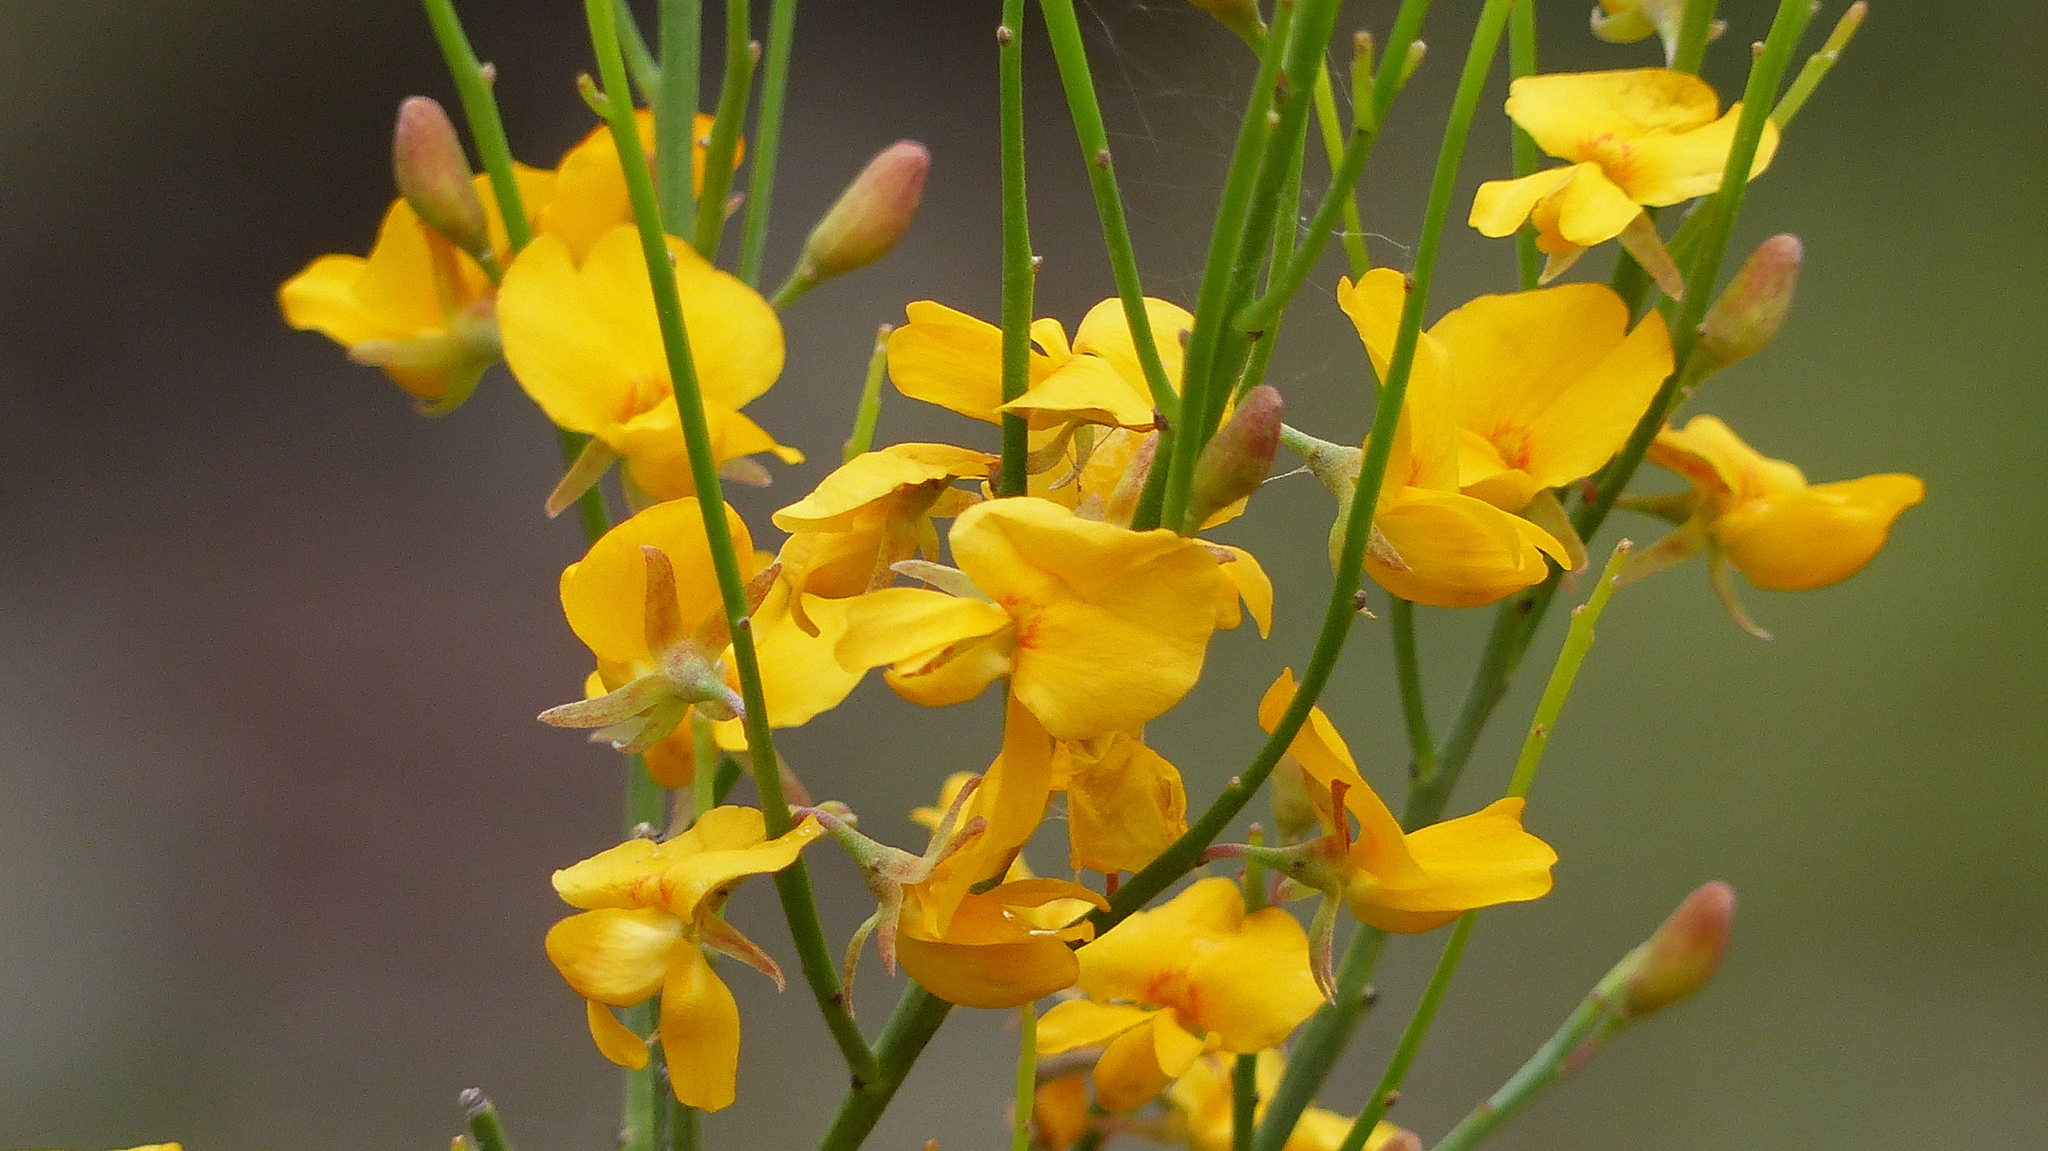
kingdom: Plantae
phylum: Tracheophyta
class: Magnoliopsida
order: Fabales
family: Fabaceae
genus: Jacksonia
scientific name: Jacksonia scoparia
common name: Dogwood
